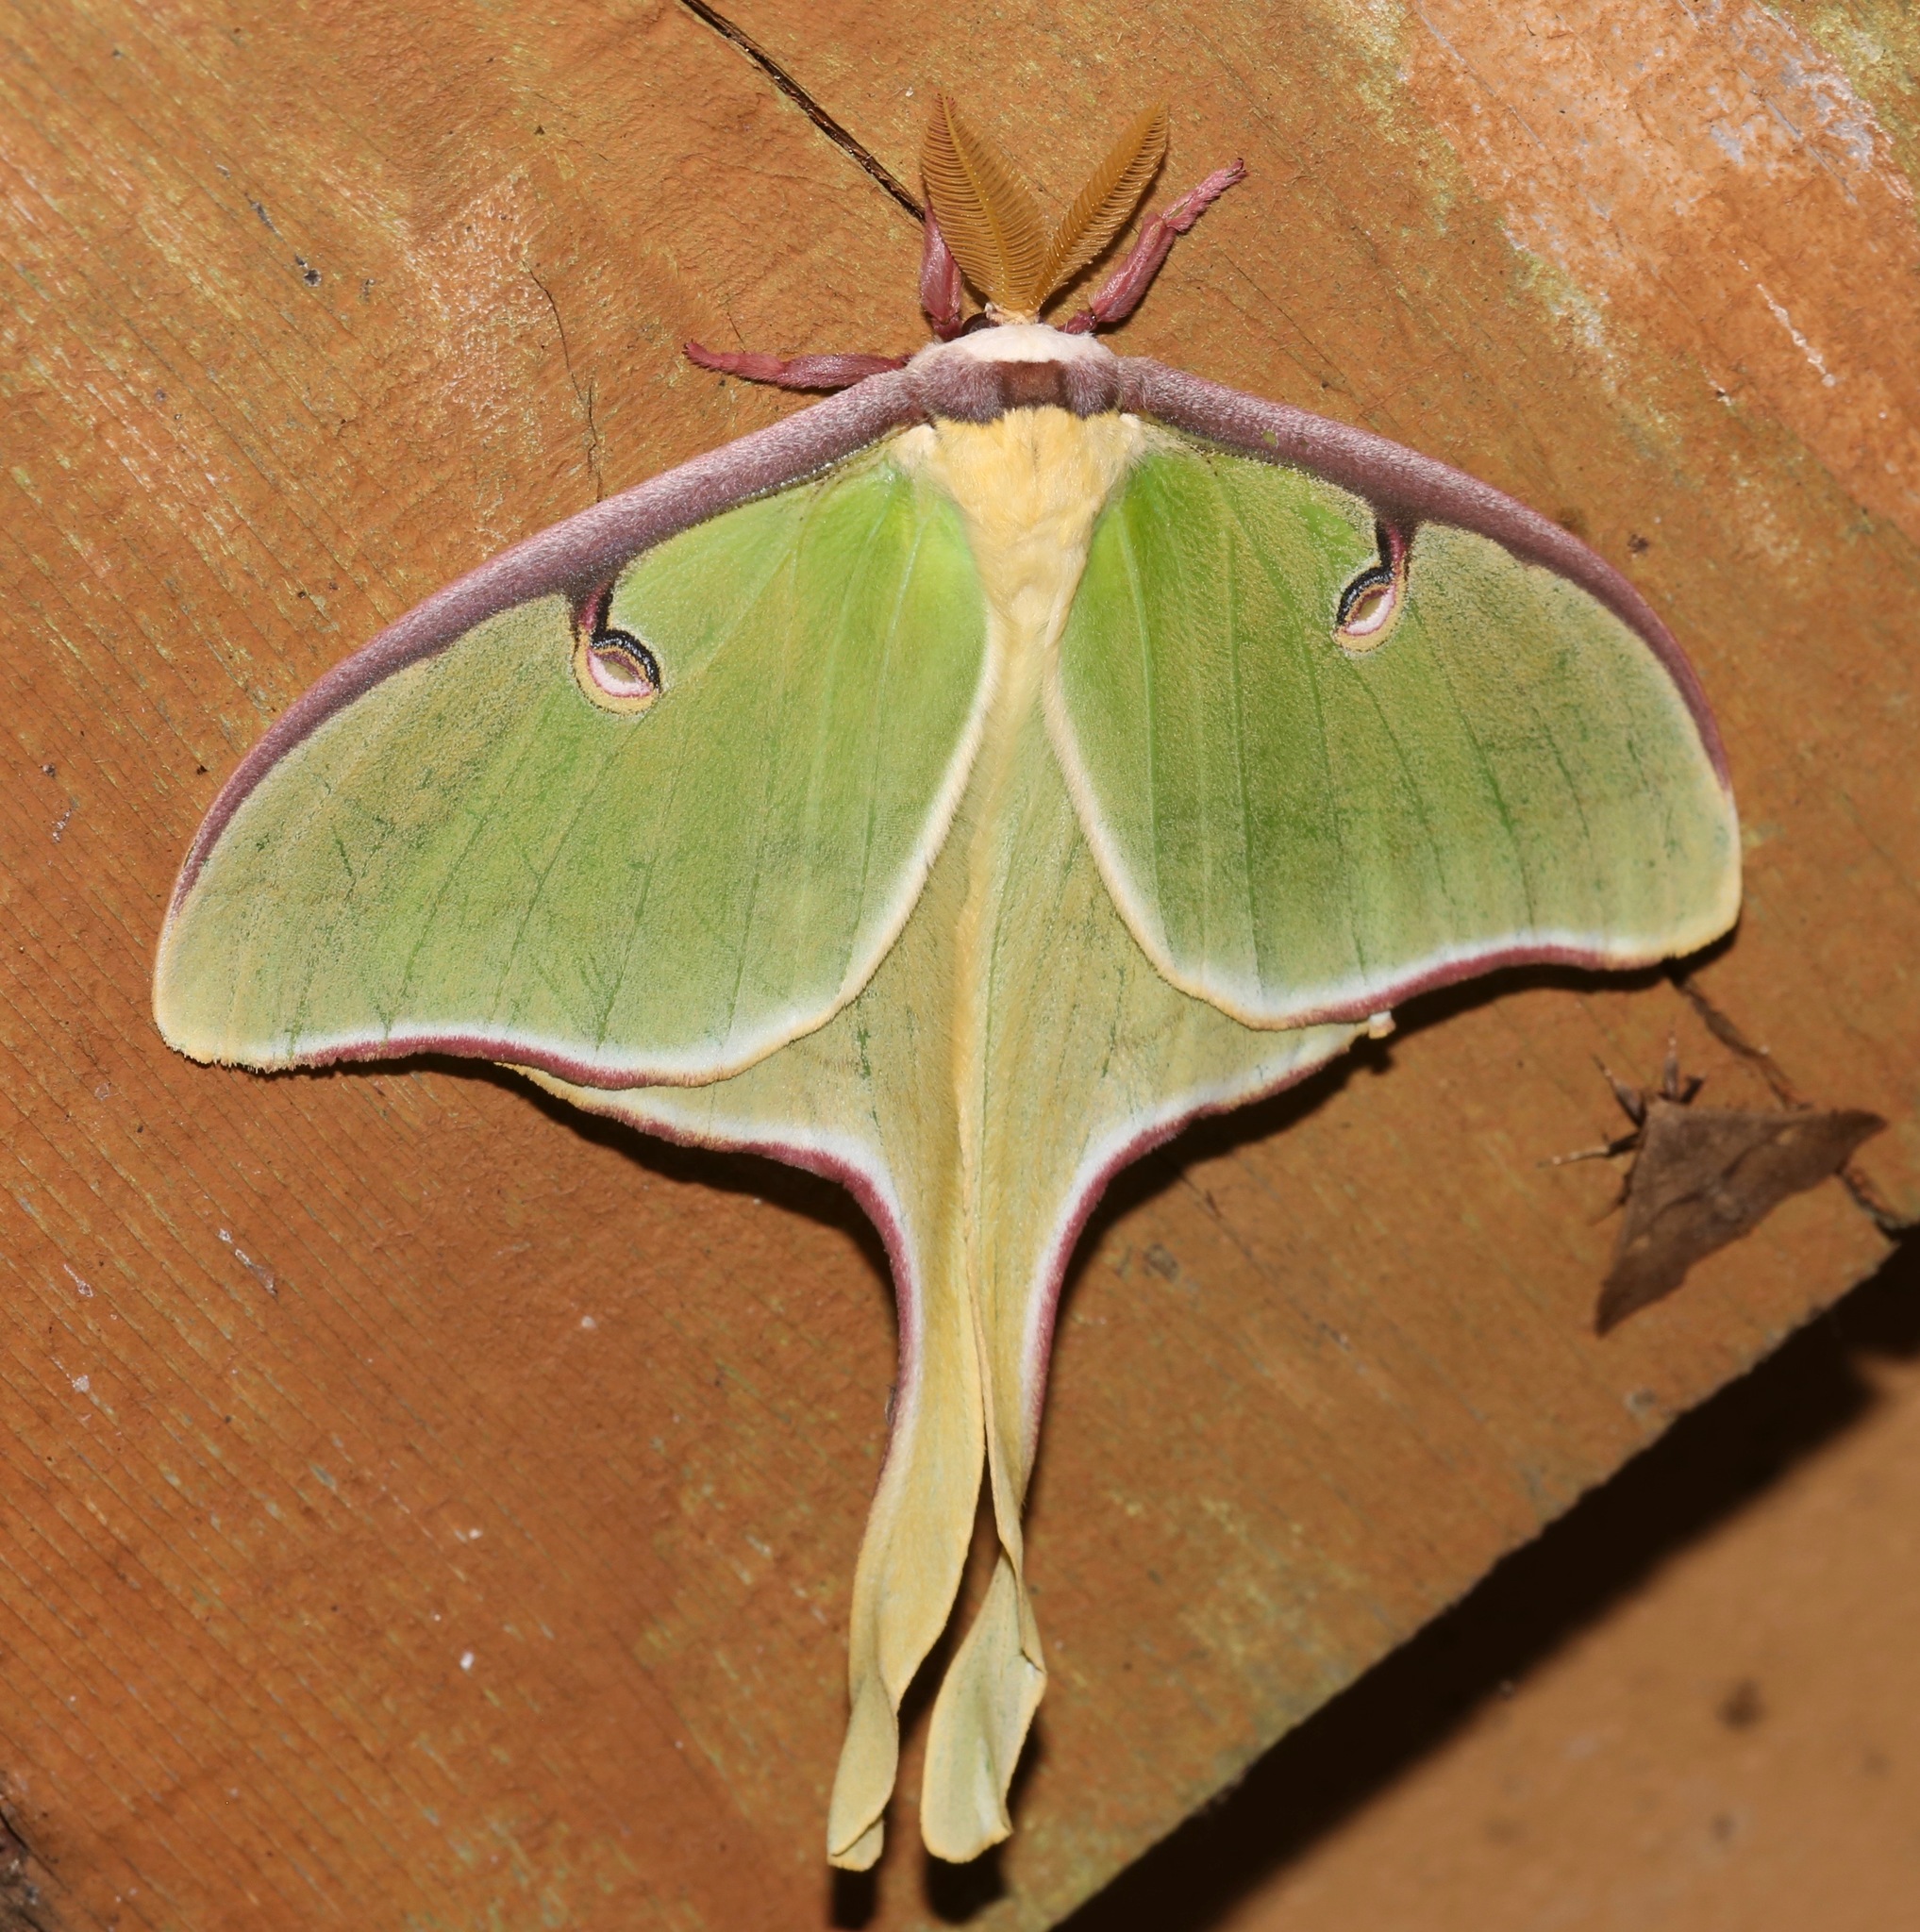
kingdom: Animalia
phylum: Arthropoda
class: Insecta
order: Lepidoptera
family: Saturniidae
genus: Actias
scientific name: Actias luna
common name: Luna moth
